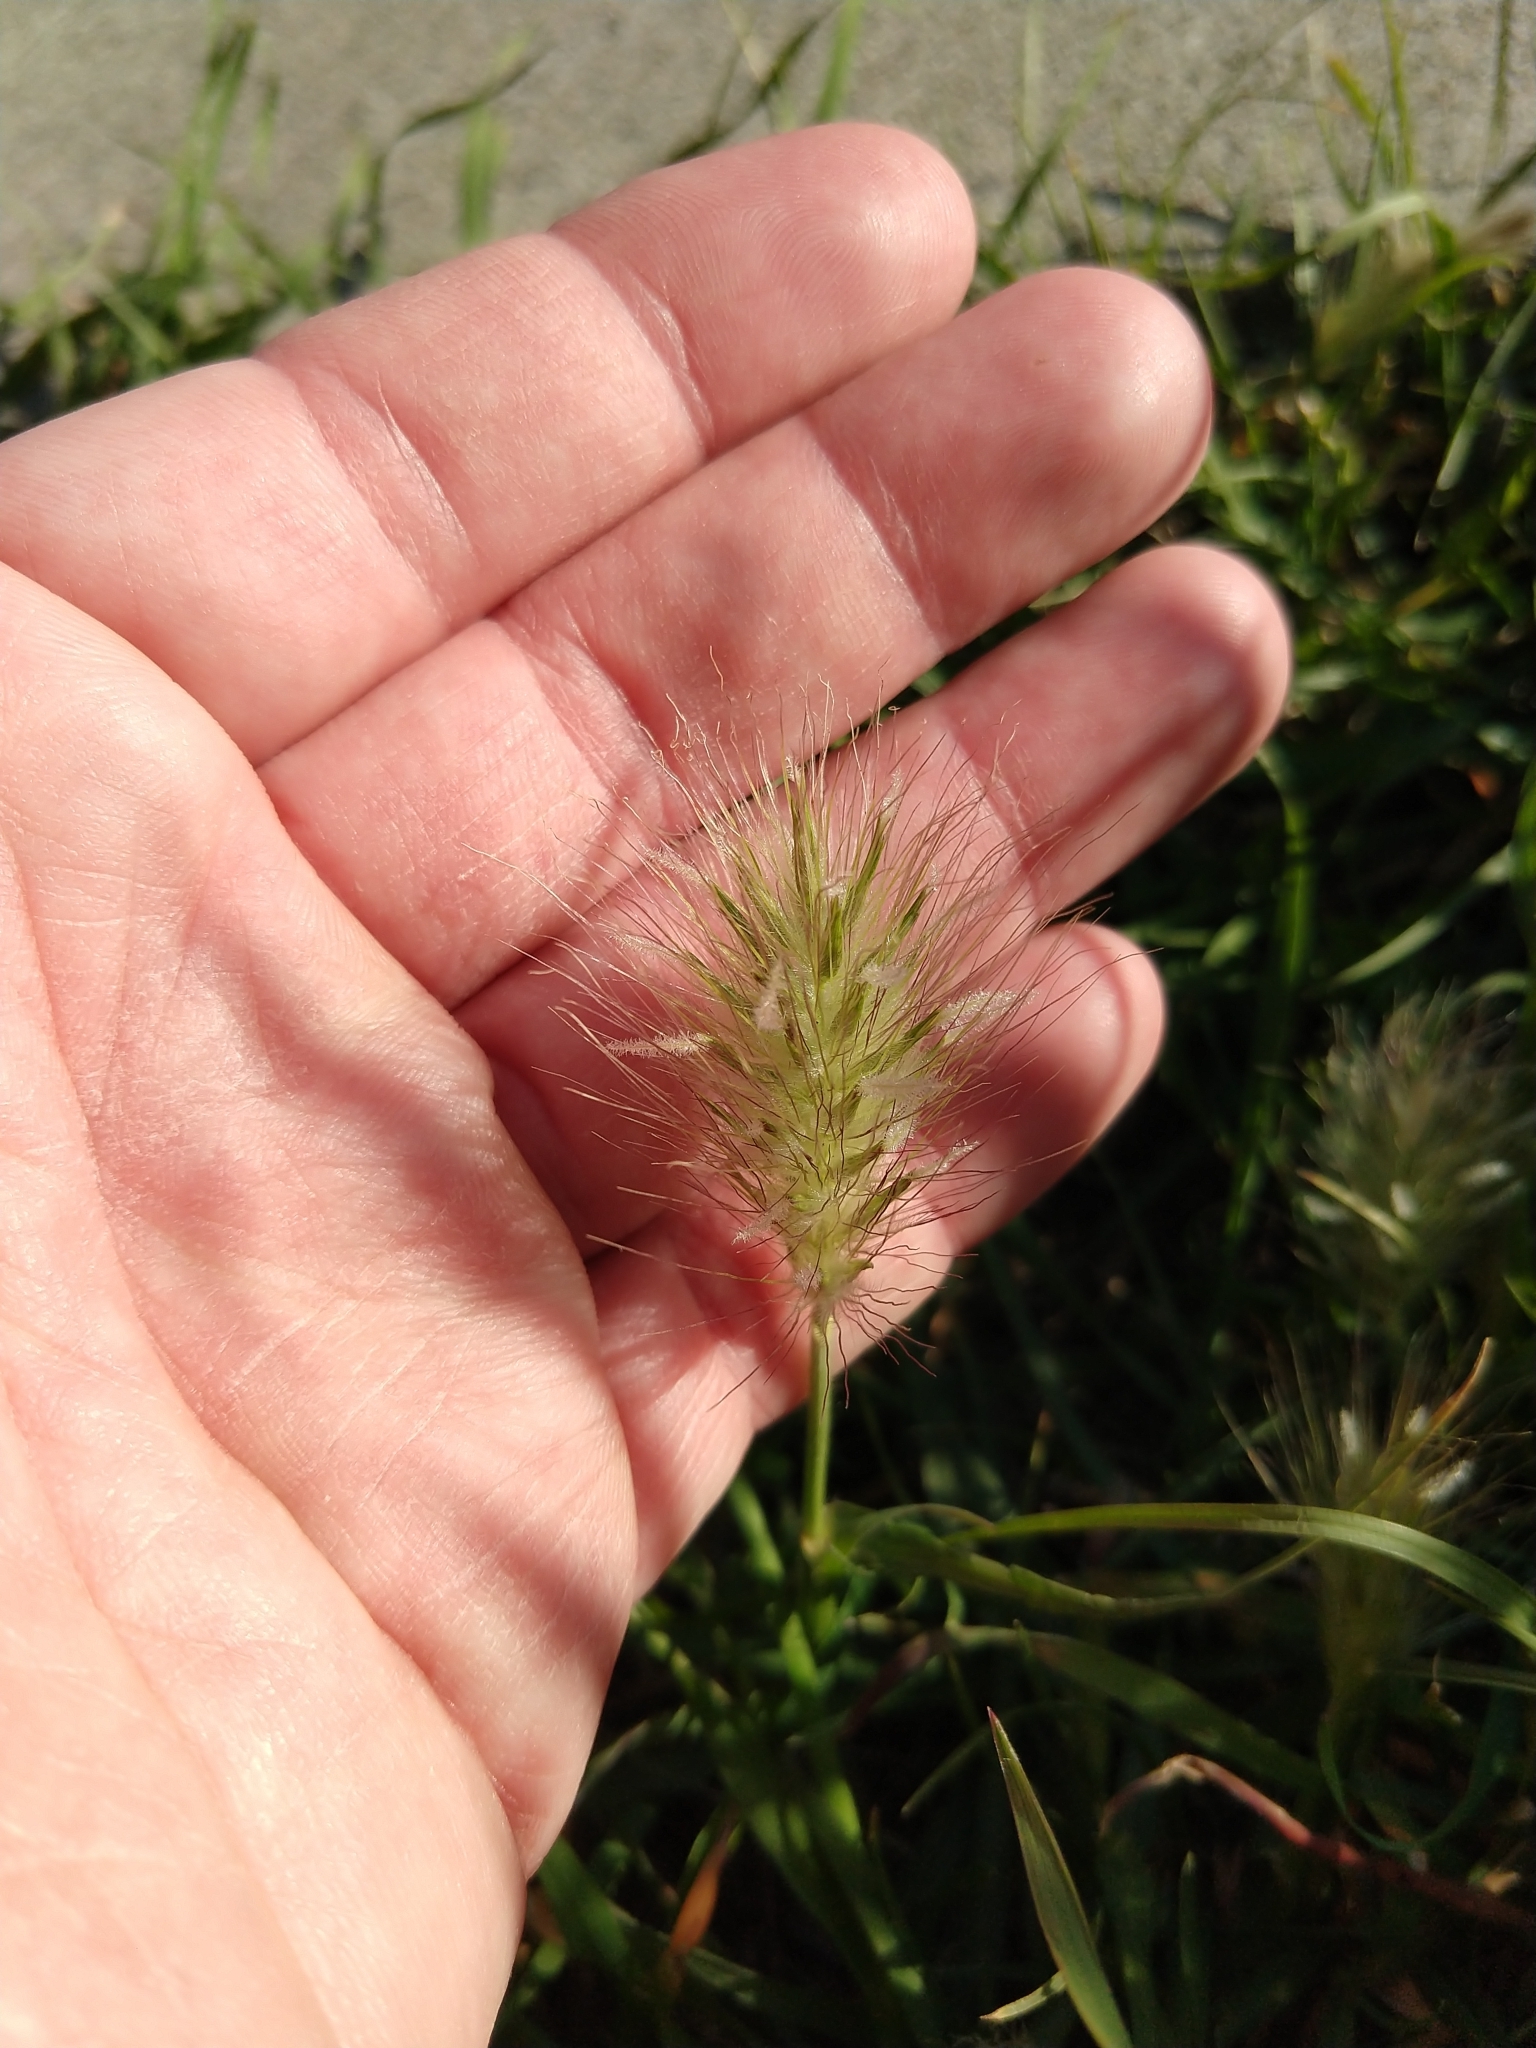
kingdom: Plantae
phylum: Tracheophyta
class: Liliopsida
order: Poales
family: Poaceae
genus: Cenchrus
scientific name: Cenchrus longisetus
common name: Feathertop
